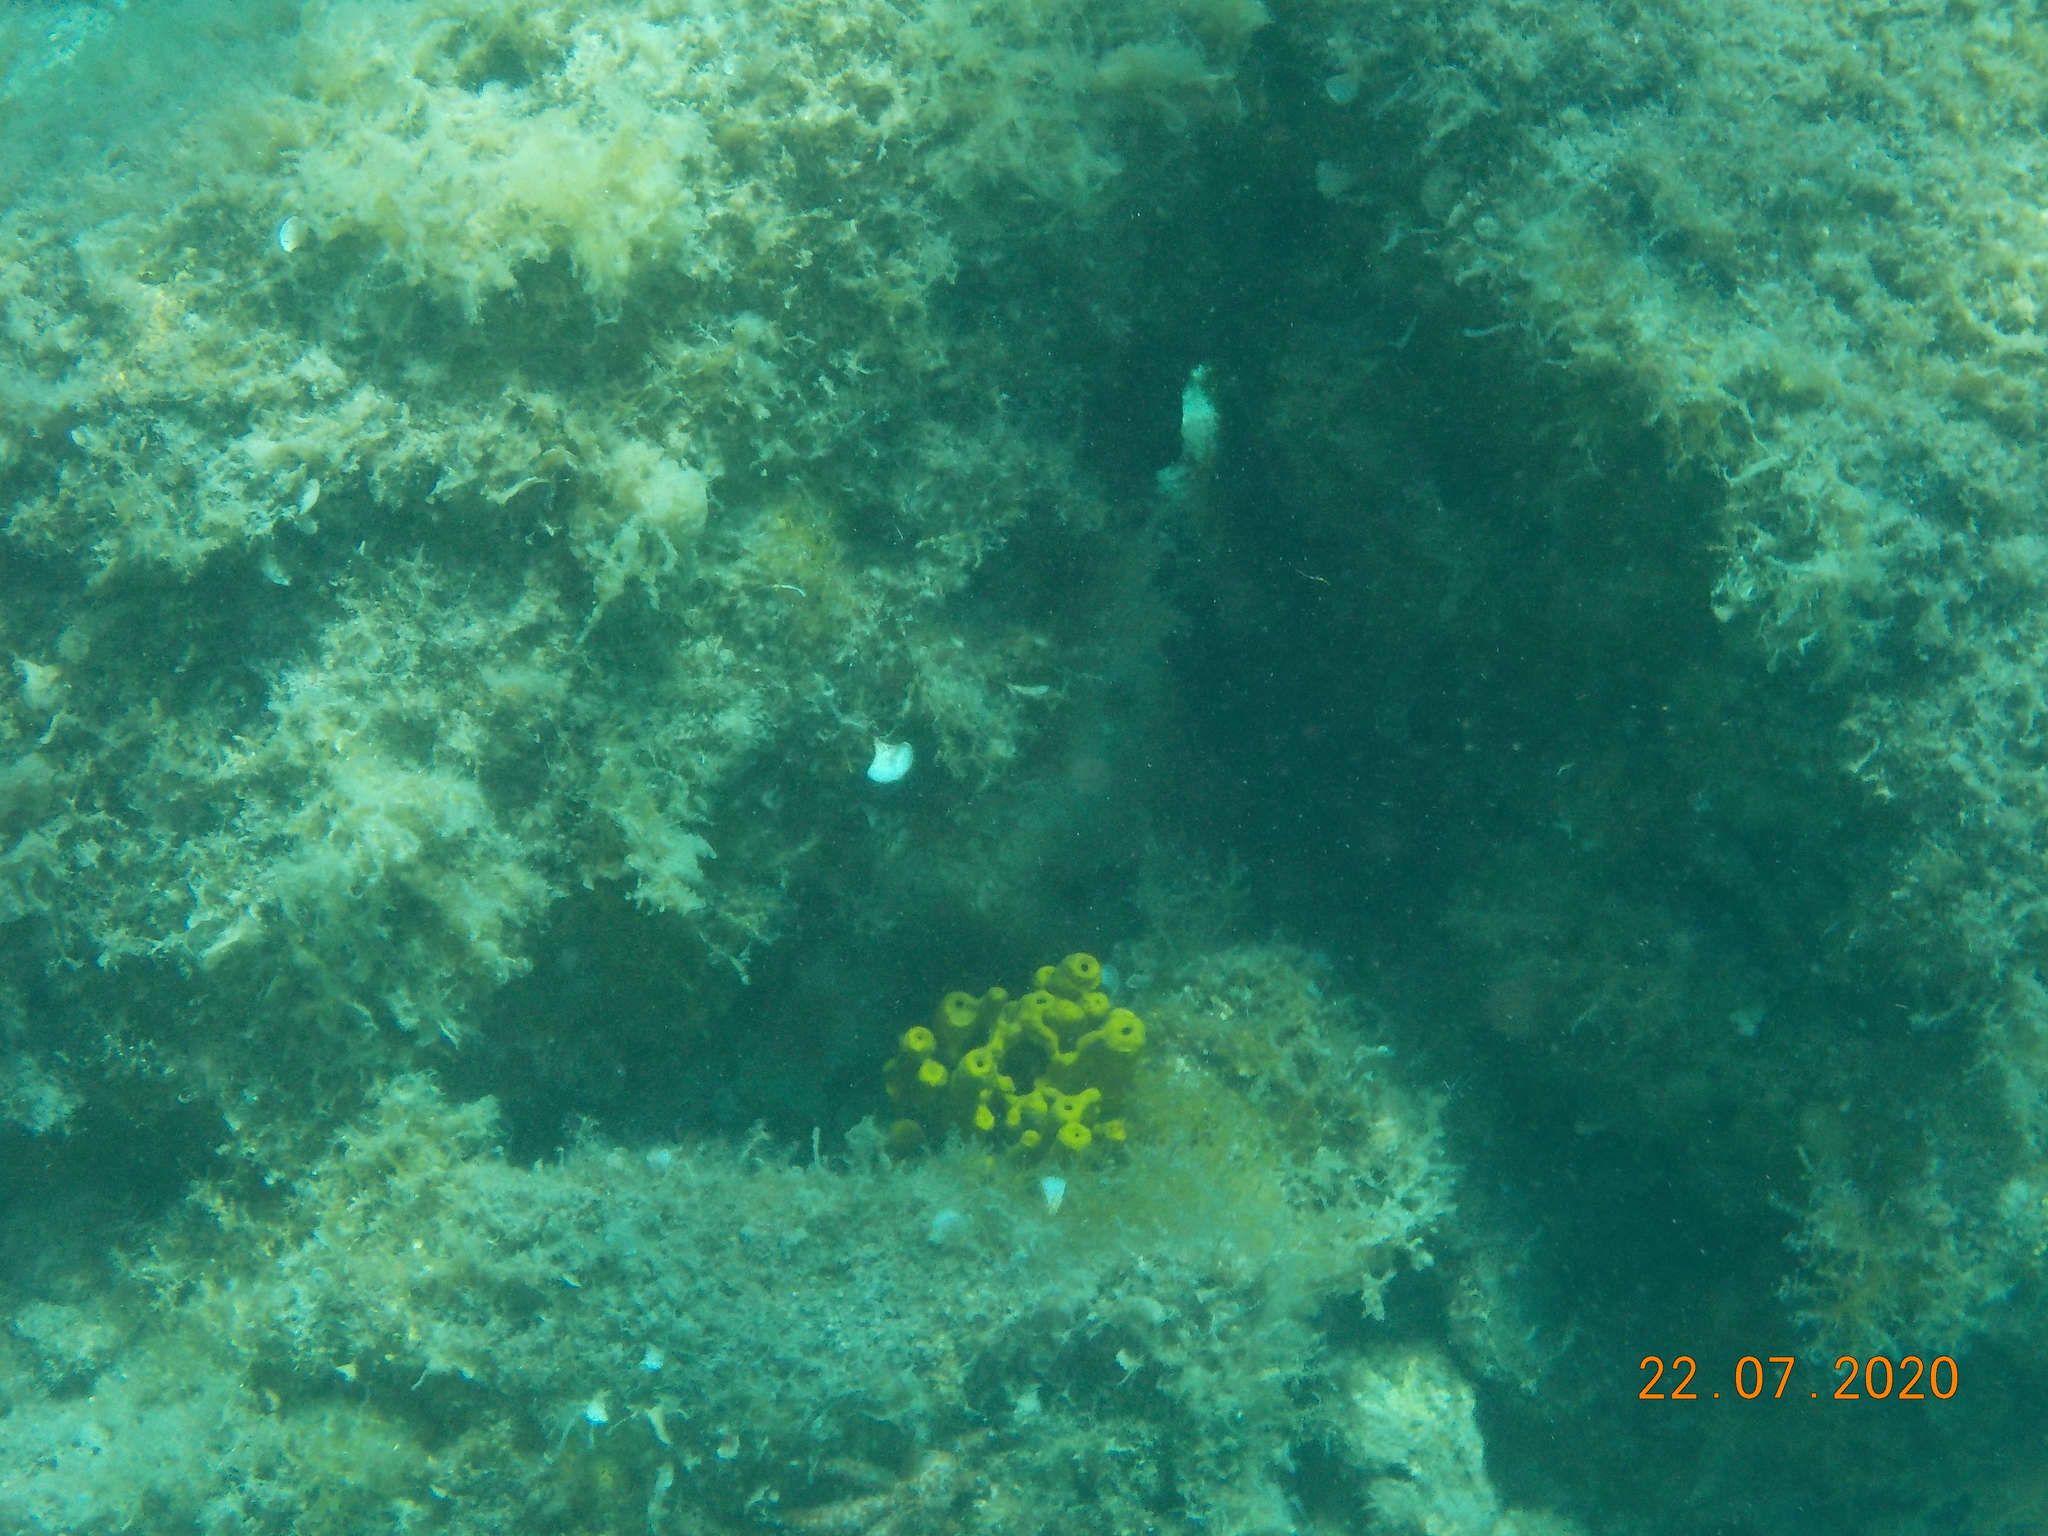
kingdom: Animalia
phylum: Porifera
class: Demospongiae
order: Verongiida
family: Aplysinidae
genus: Aplysina
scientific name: Aplysina aerophoba
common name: Aureate sponge
